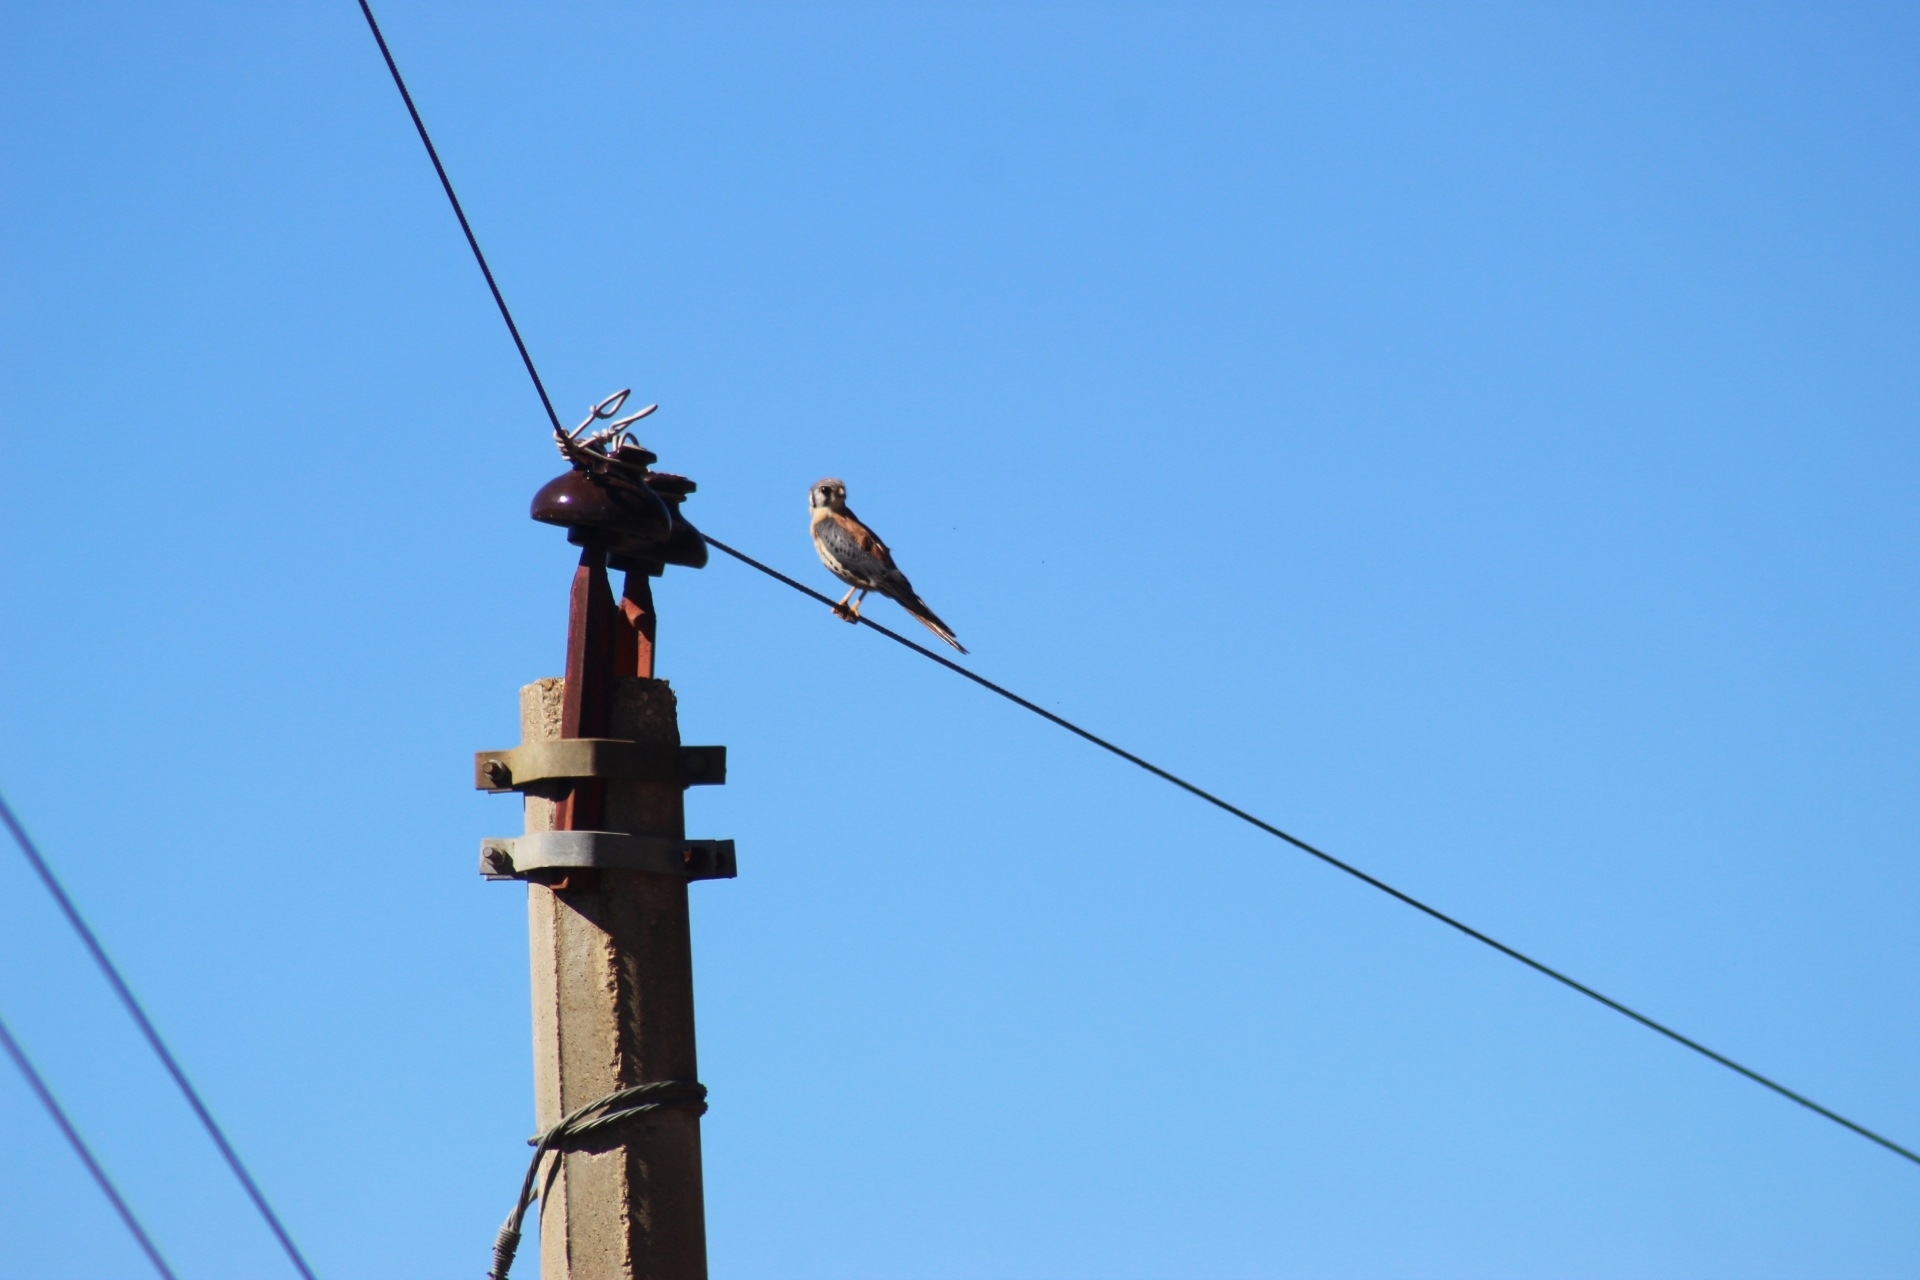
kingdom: Animalia
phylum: Chordata
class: Aves
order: Falconiformes
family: Falconidae
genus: Falco
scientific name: Falco sparverius
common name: American kestrel
